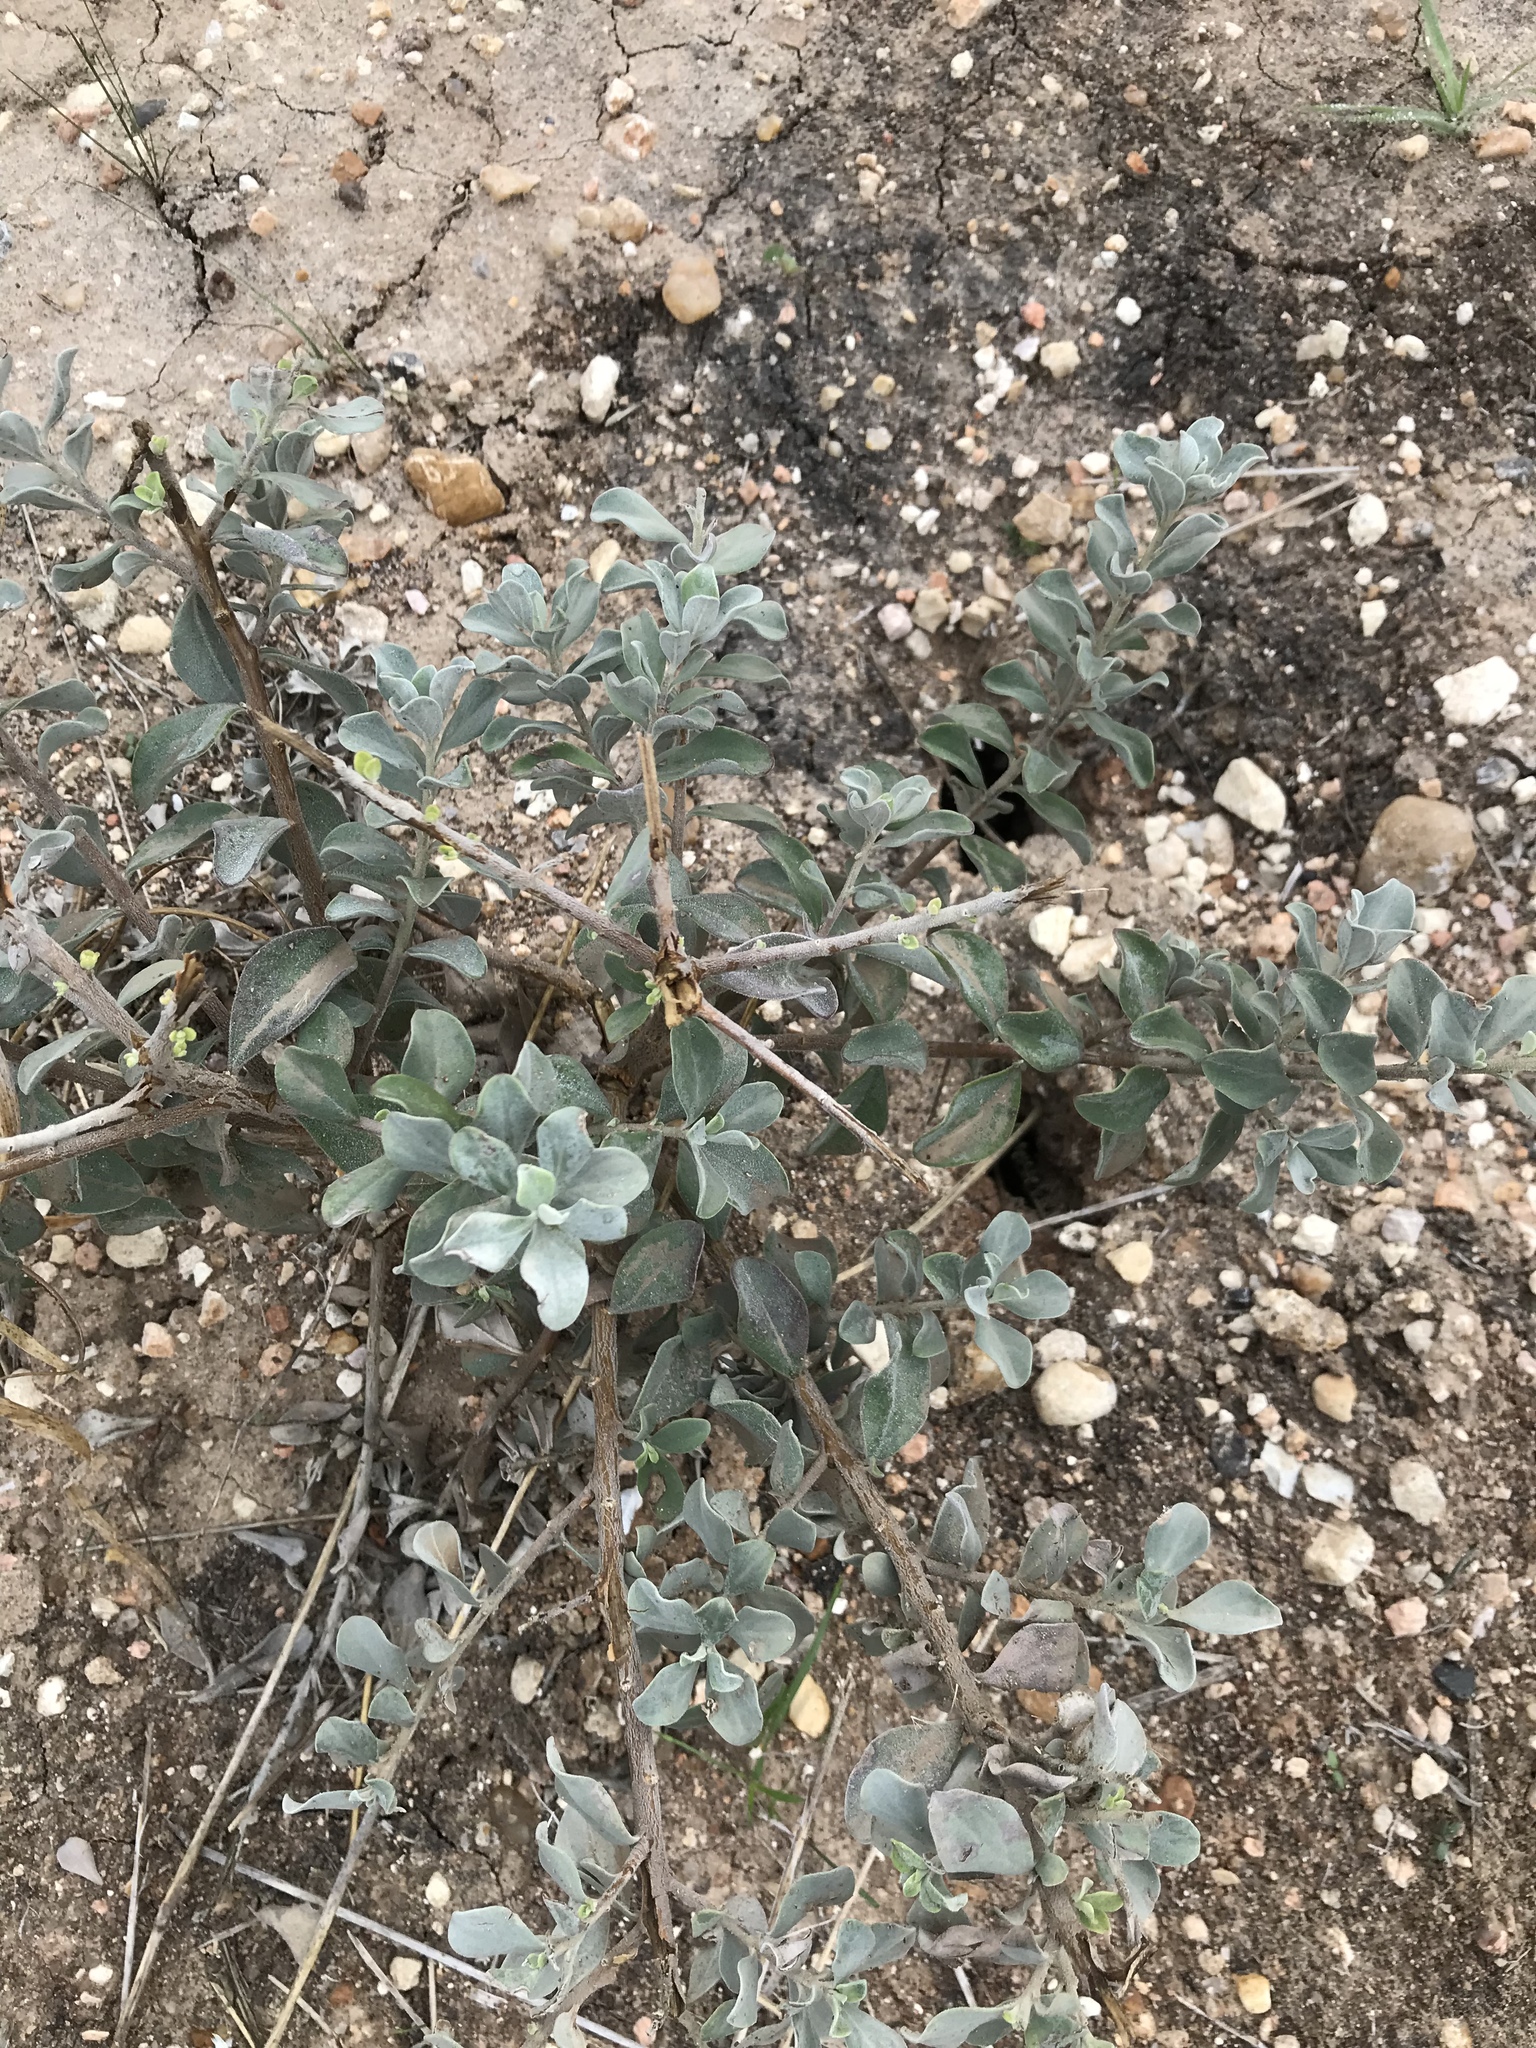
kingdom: Plantae
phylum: Tracheophyta
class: Magnoliopsida
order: Lamiales
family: Scrophulariaceae
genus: Leucophyllum
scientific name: Leucophyllum frutescens
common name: Texas silverleaf
